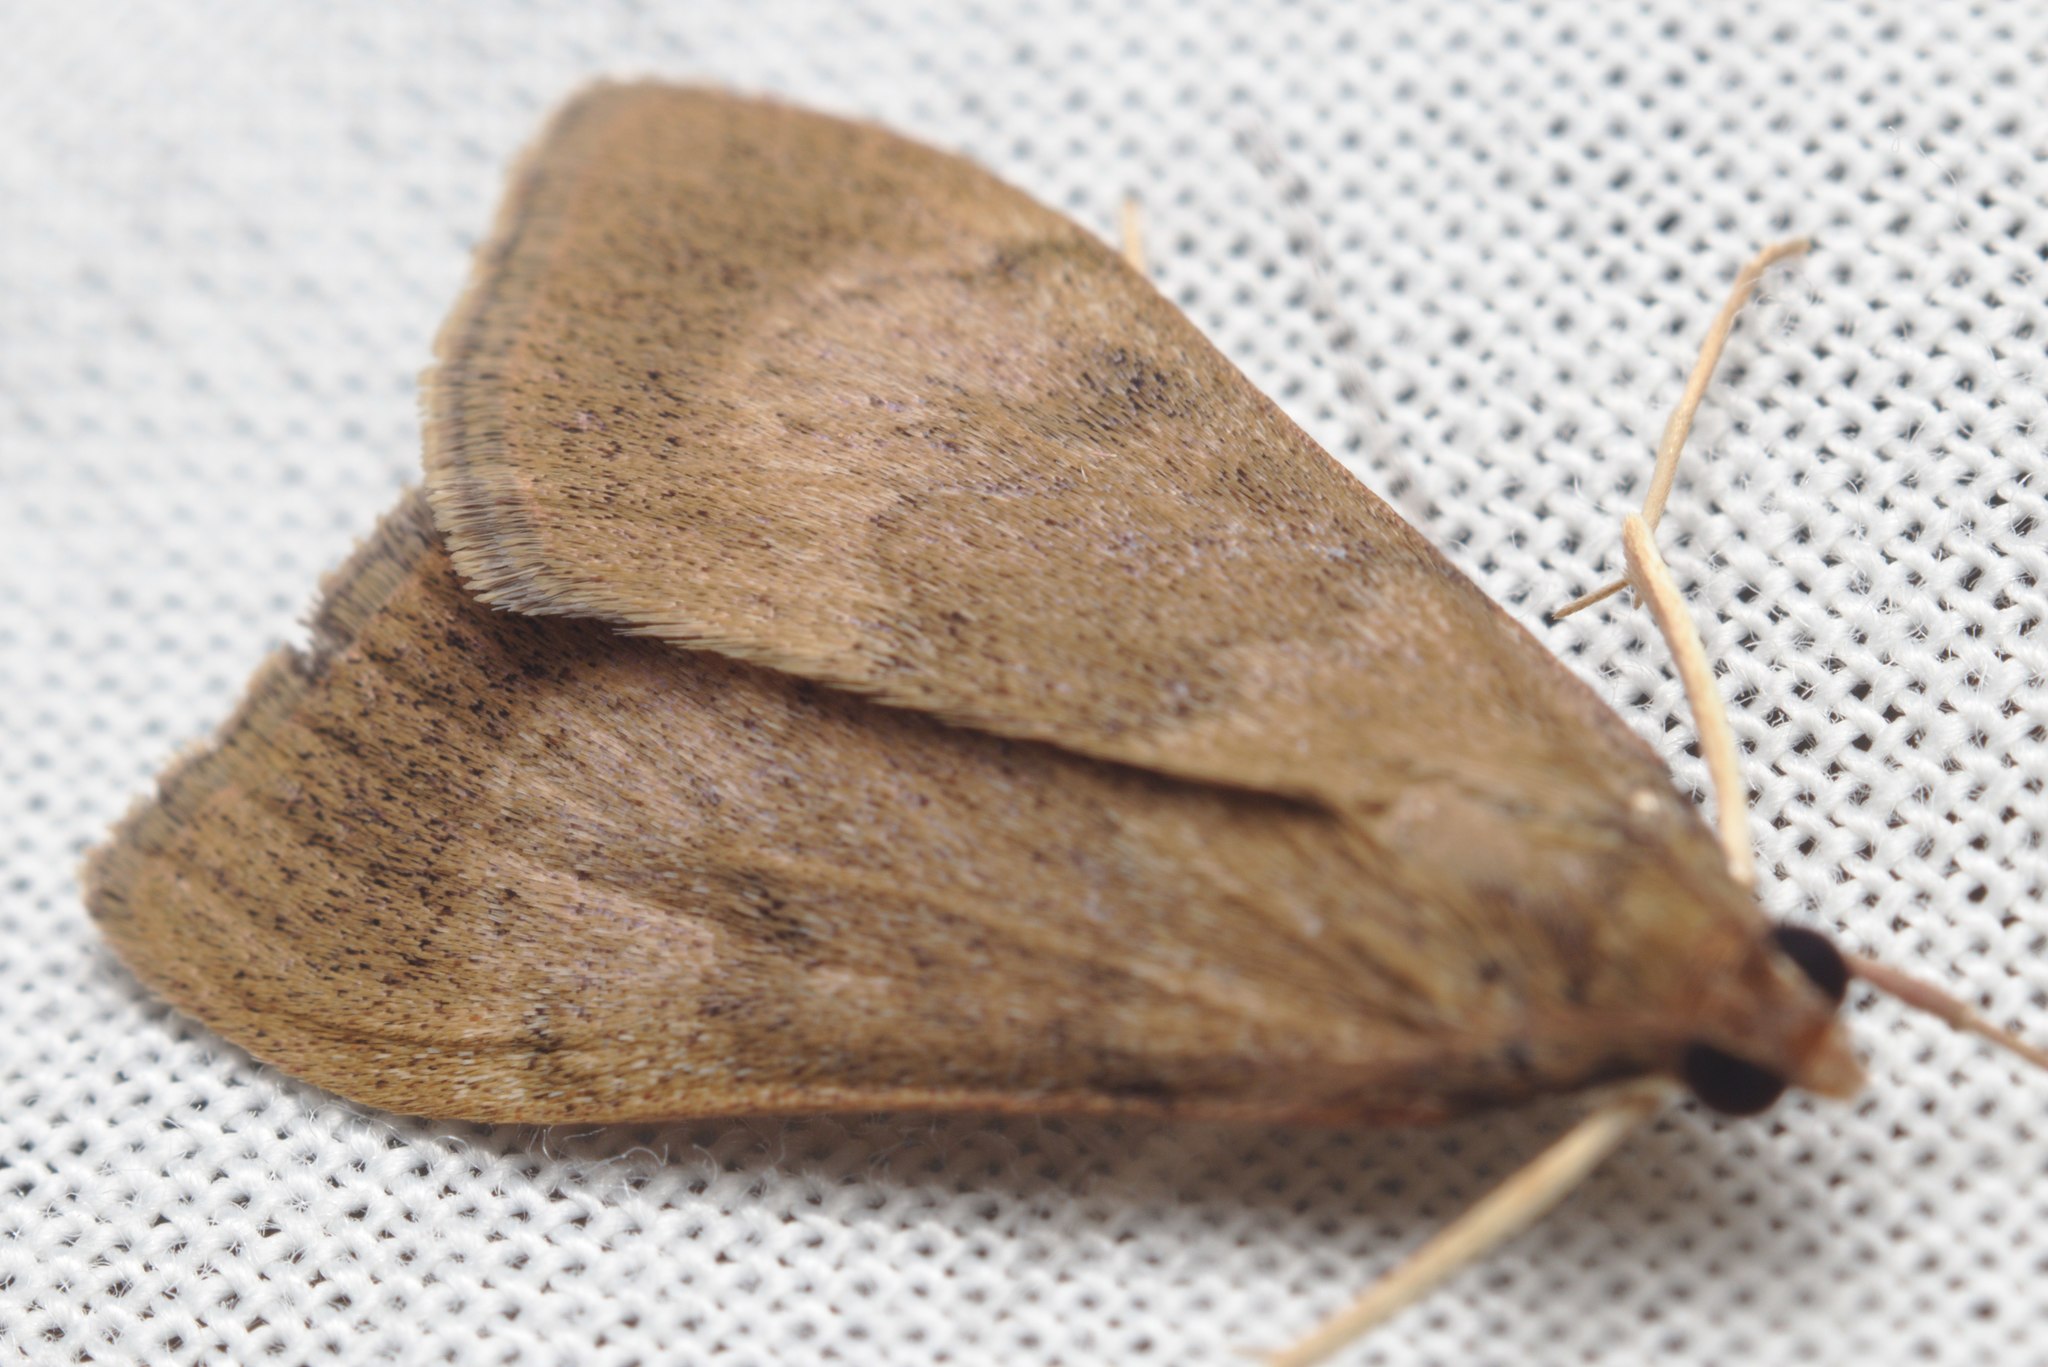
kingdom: Animalia
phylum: Arthropoda
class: Insecta
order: Lepidoptera
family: Crambidae
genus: Uresiphita
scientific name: Uresiphita
